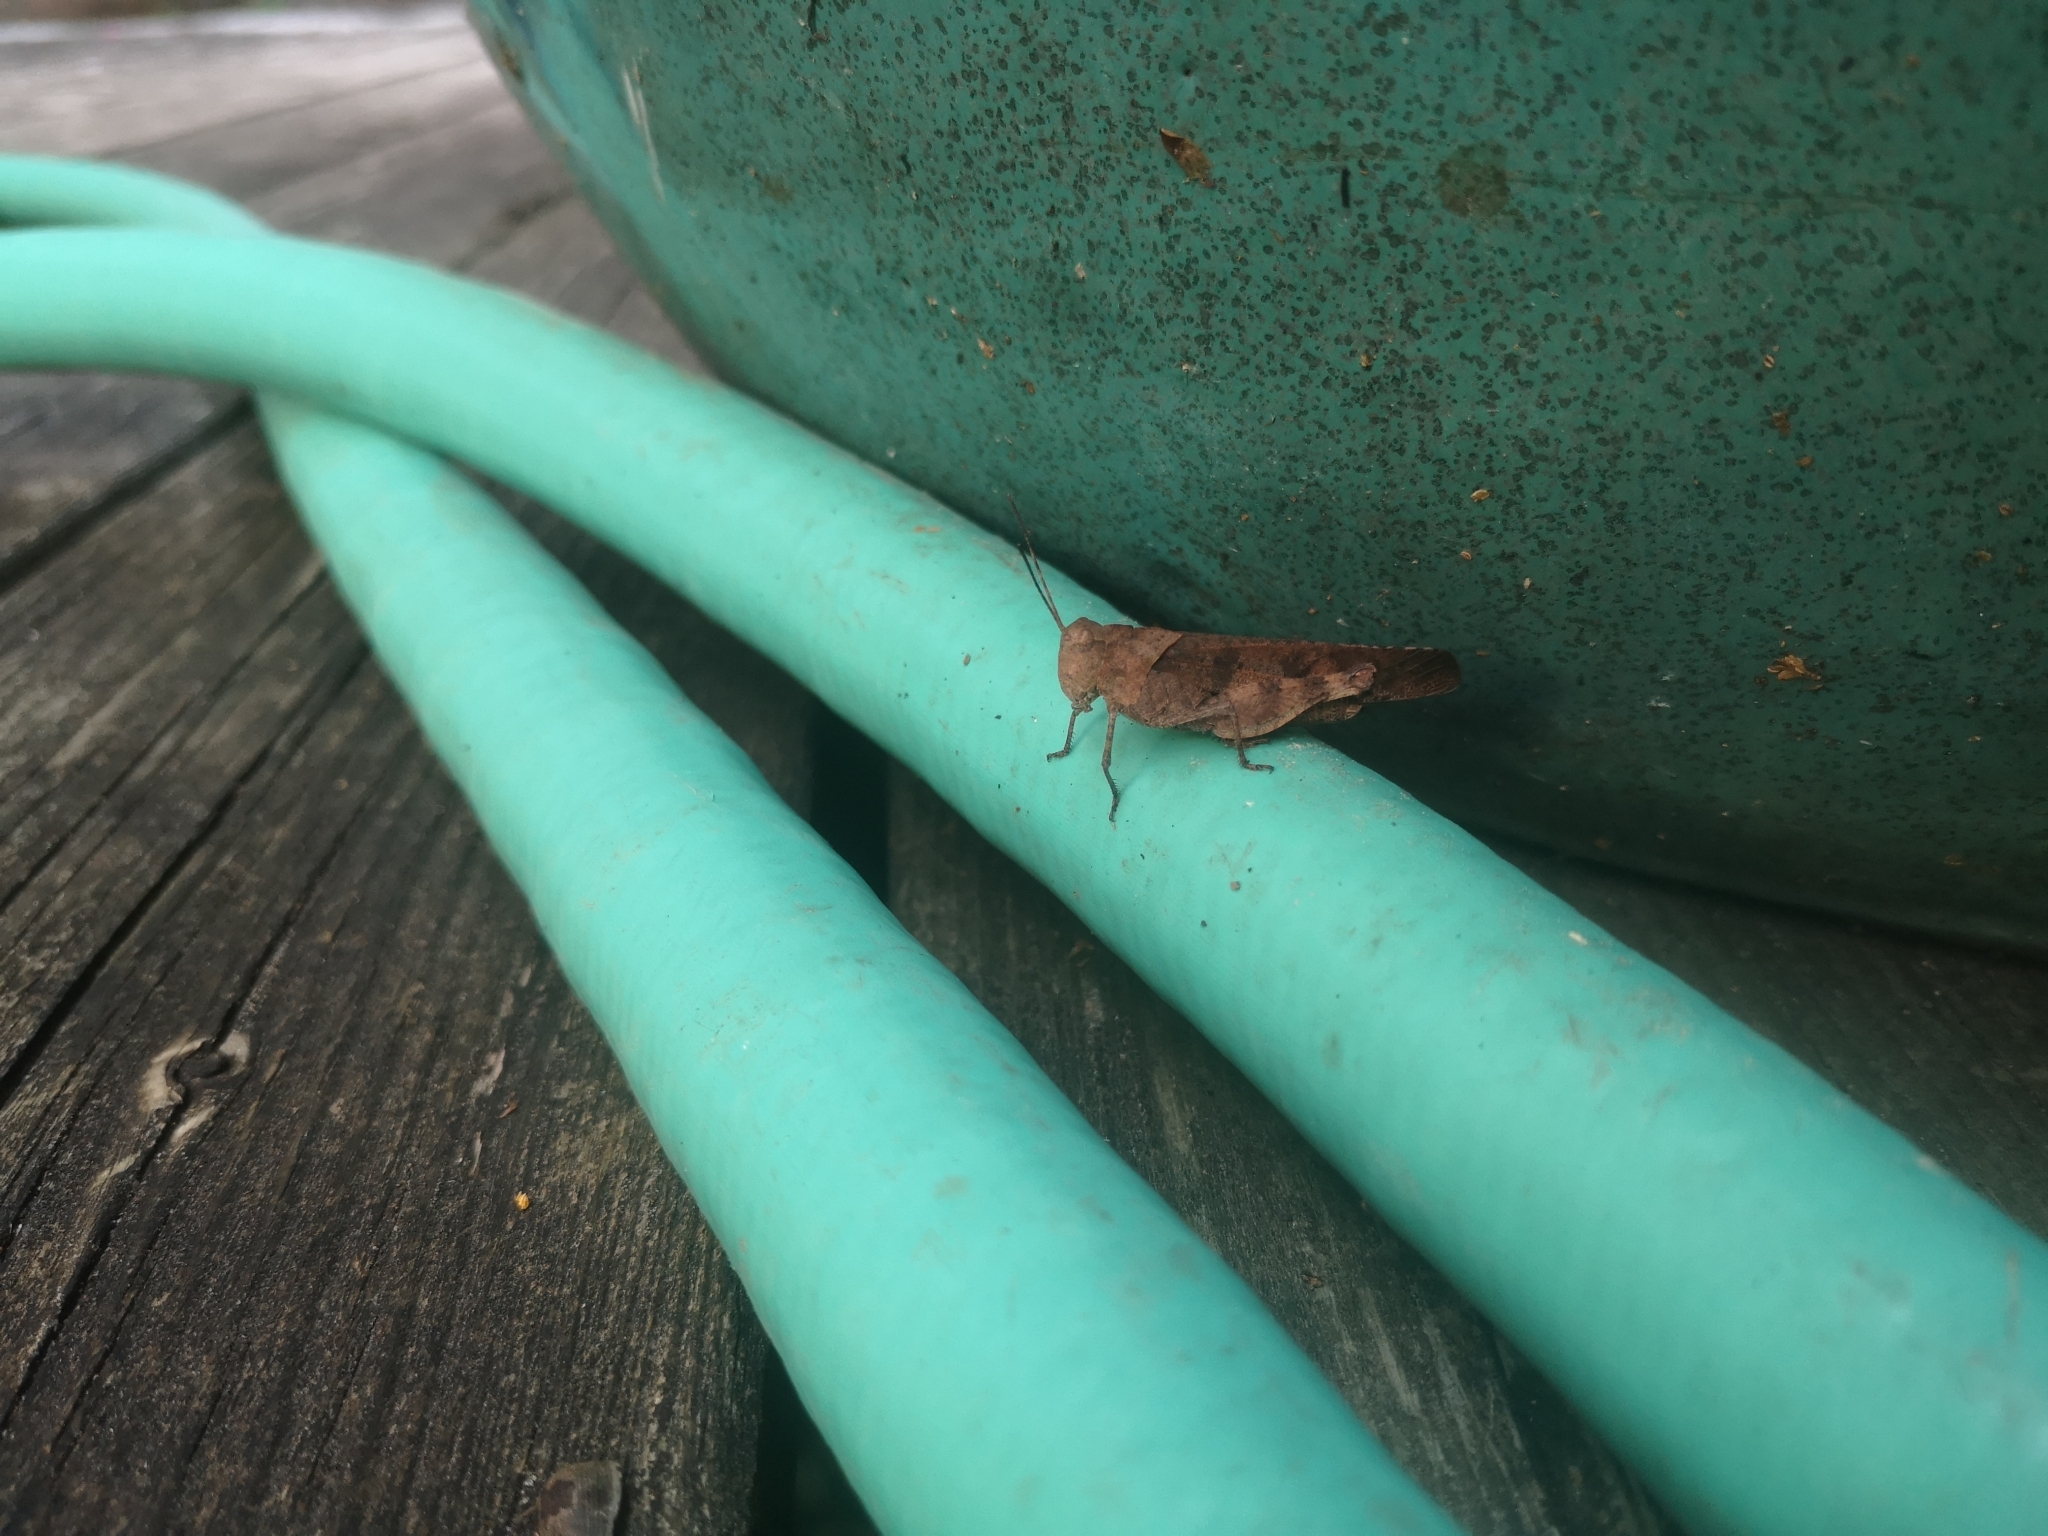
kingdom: Animalia
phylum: Arthropoda
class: Insecta
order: Orthoptera
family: Acrididae
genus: Spharagemon
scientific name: Spharagemon bolli
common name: Boll's grasshopper
